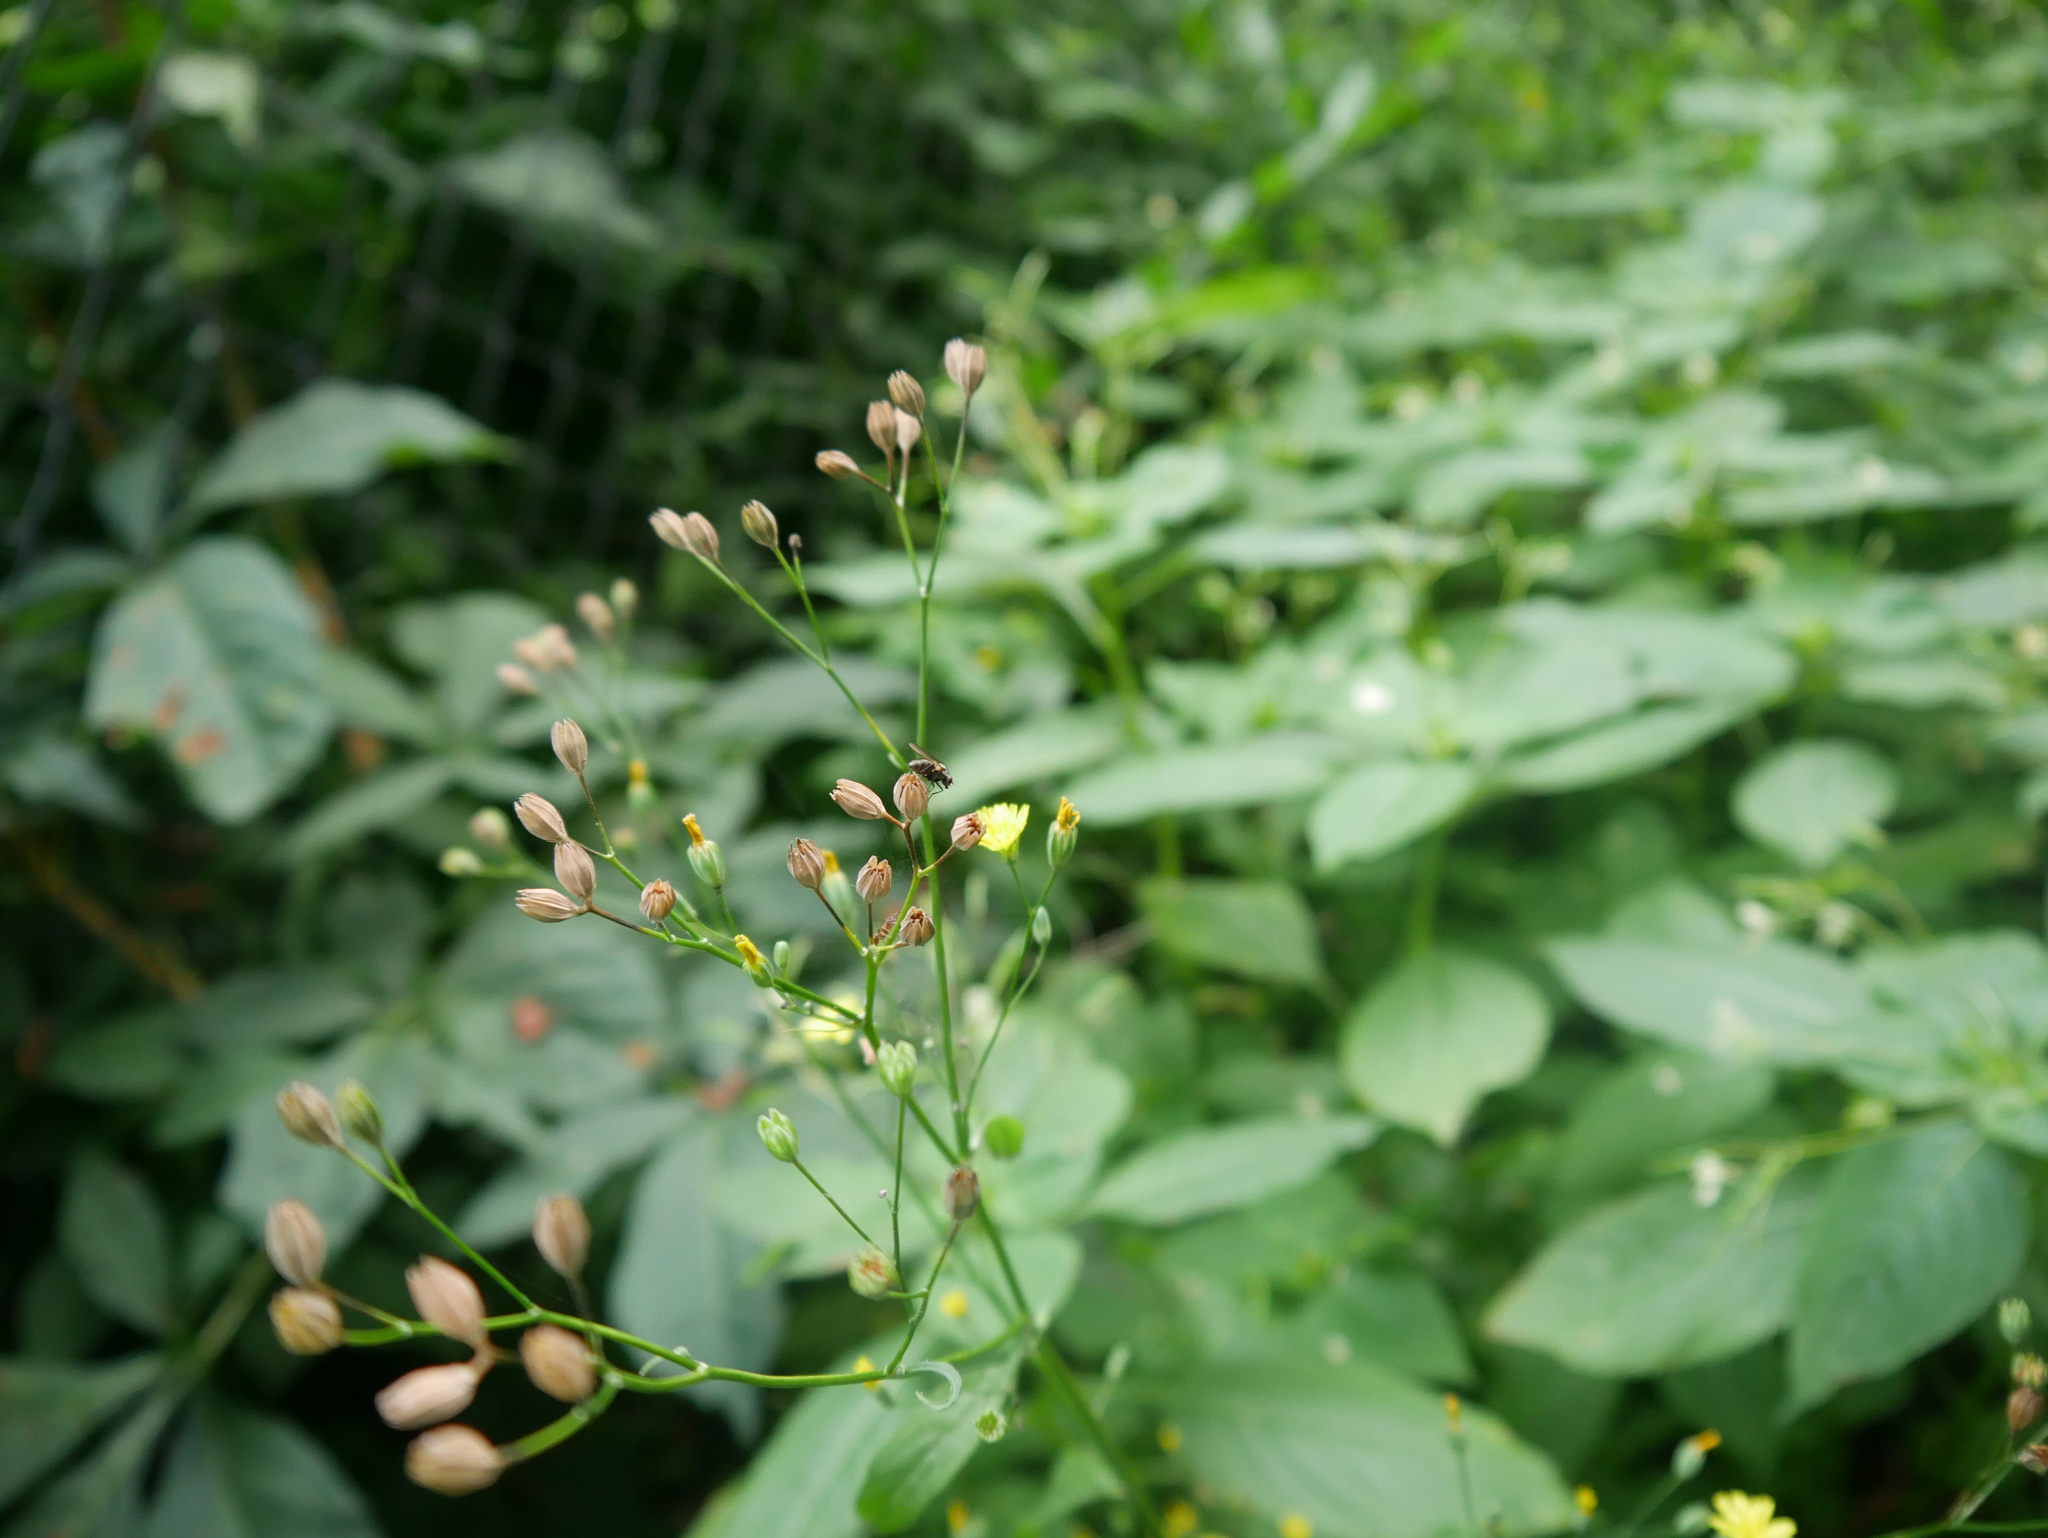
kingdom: Plantae
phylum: Tracheophyta
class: Magnoliopsida
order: Asterales
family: Asteraceae
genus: Lapsana
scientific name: Lapsana communis
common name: Nipplewort
